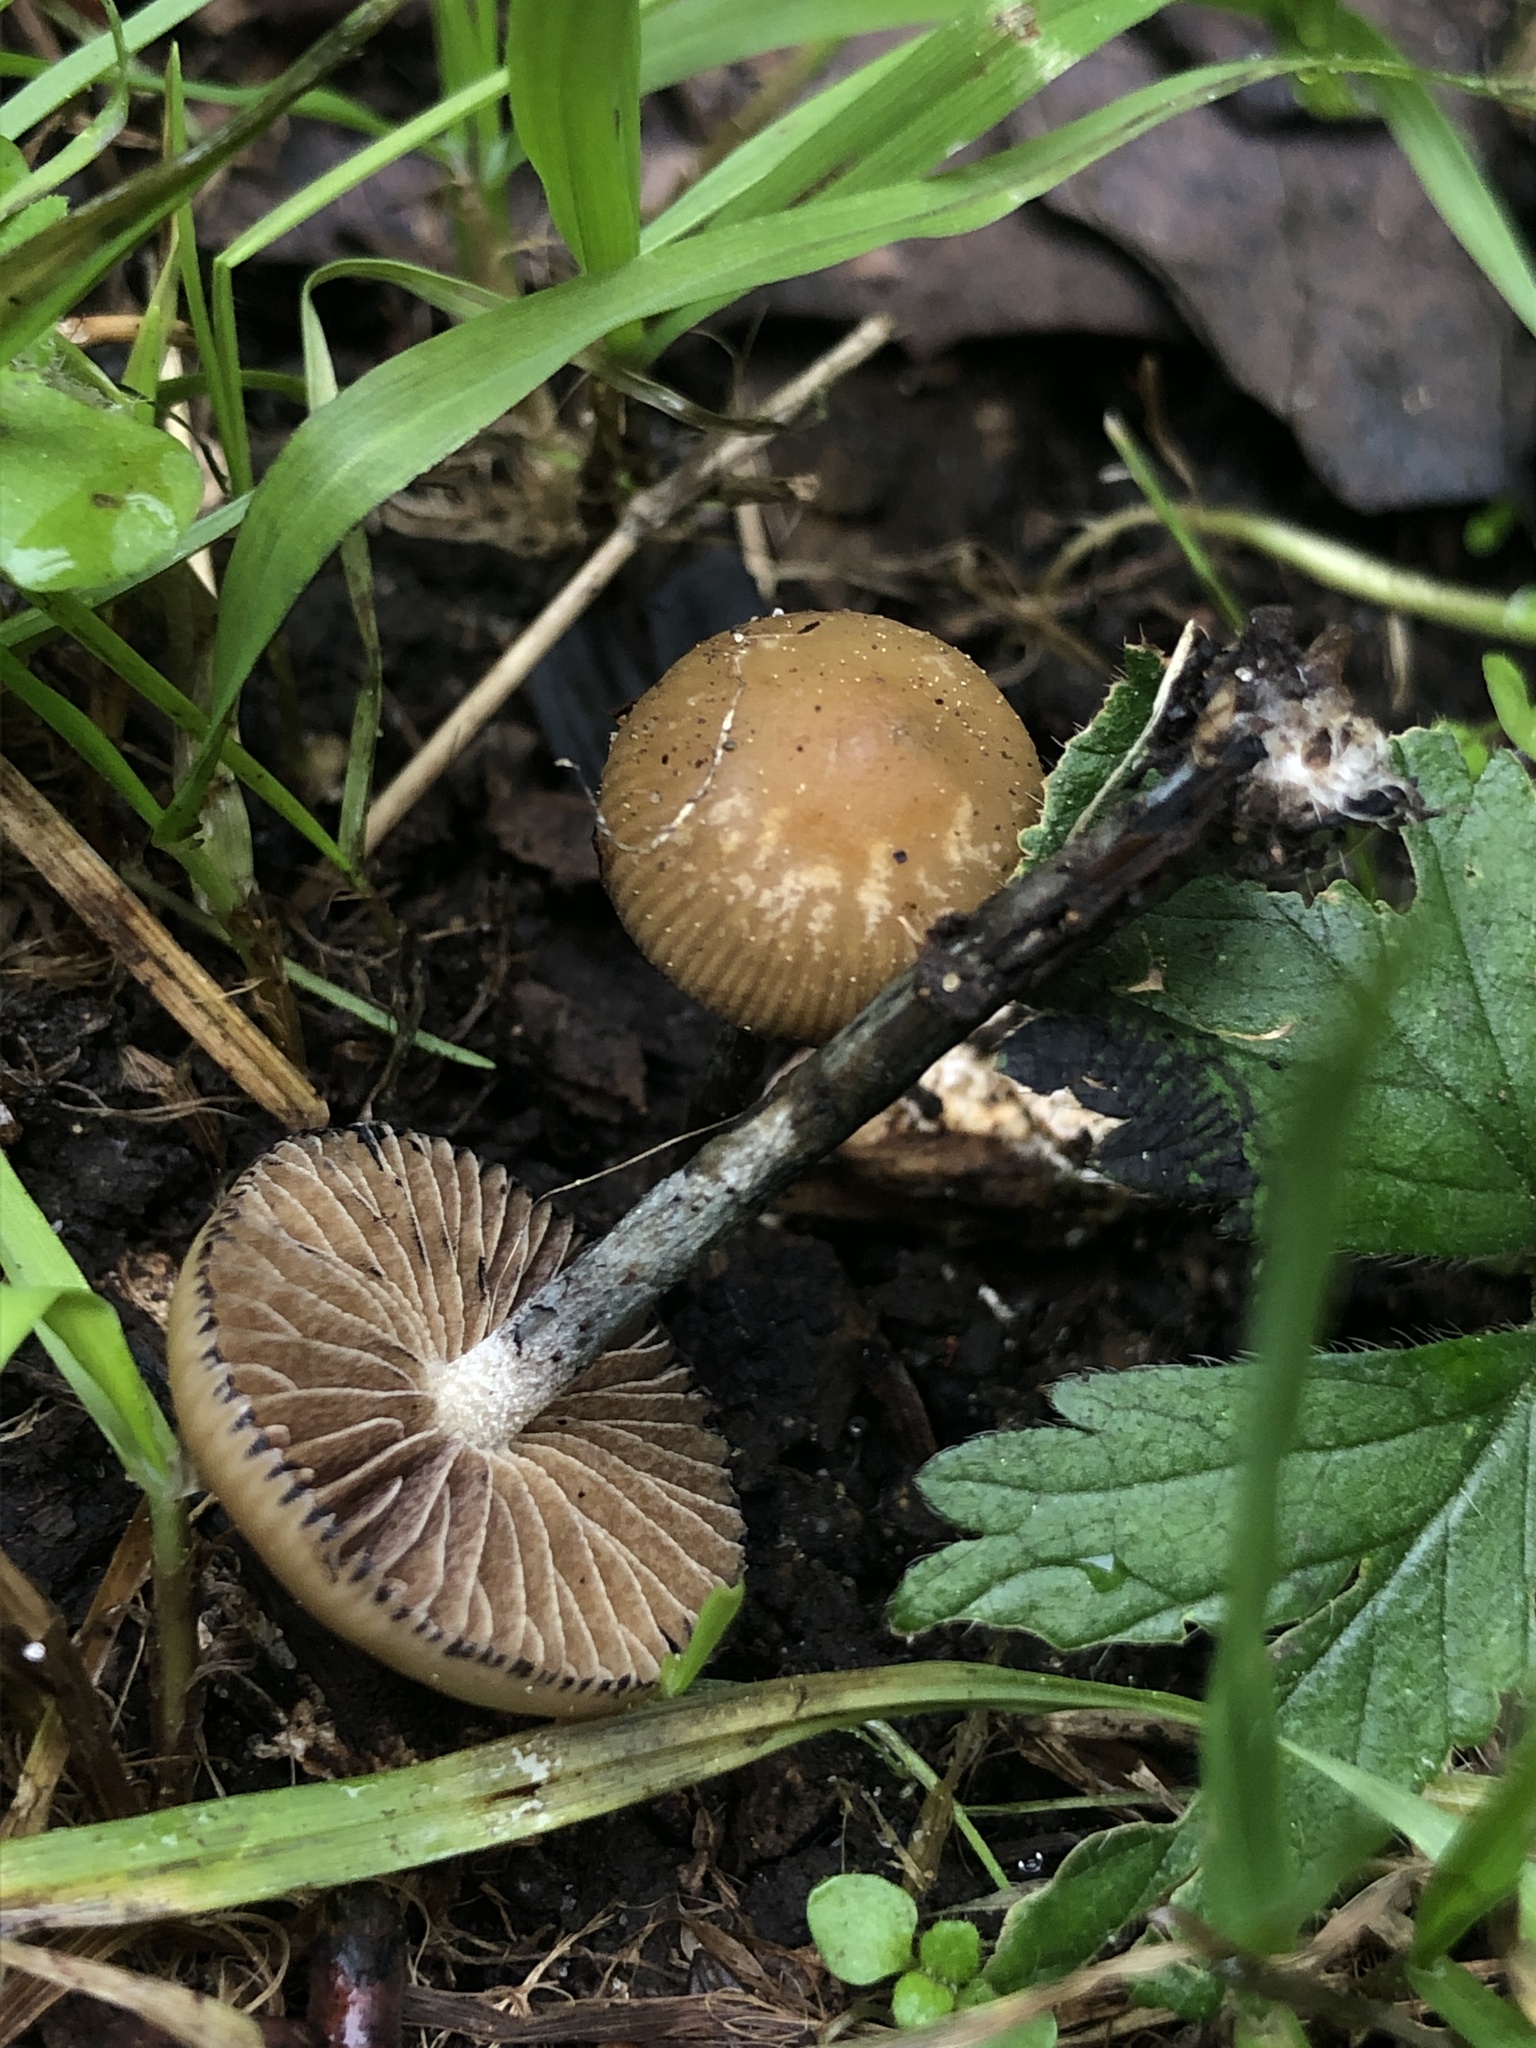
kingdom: Fungi
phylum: Basidiomycota
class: Agaricomycetes
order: Agaricales
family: Hymenogastraceae
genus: Psilocybe
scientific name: Psilocybe allenii
